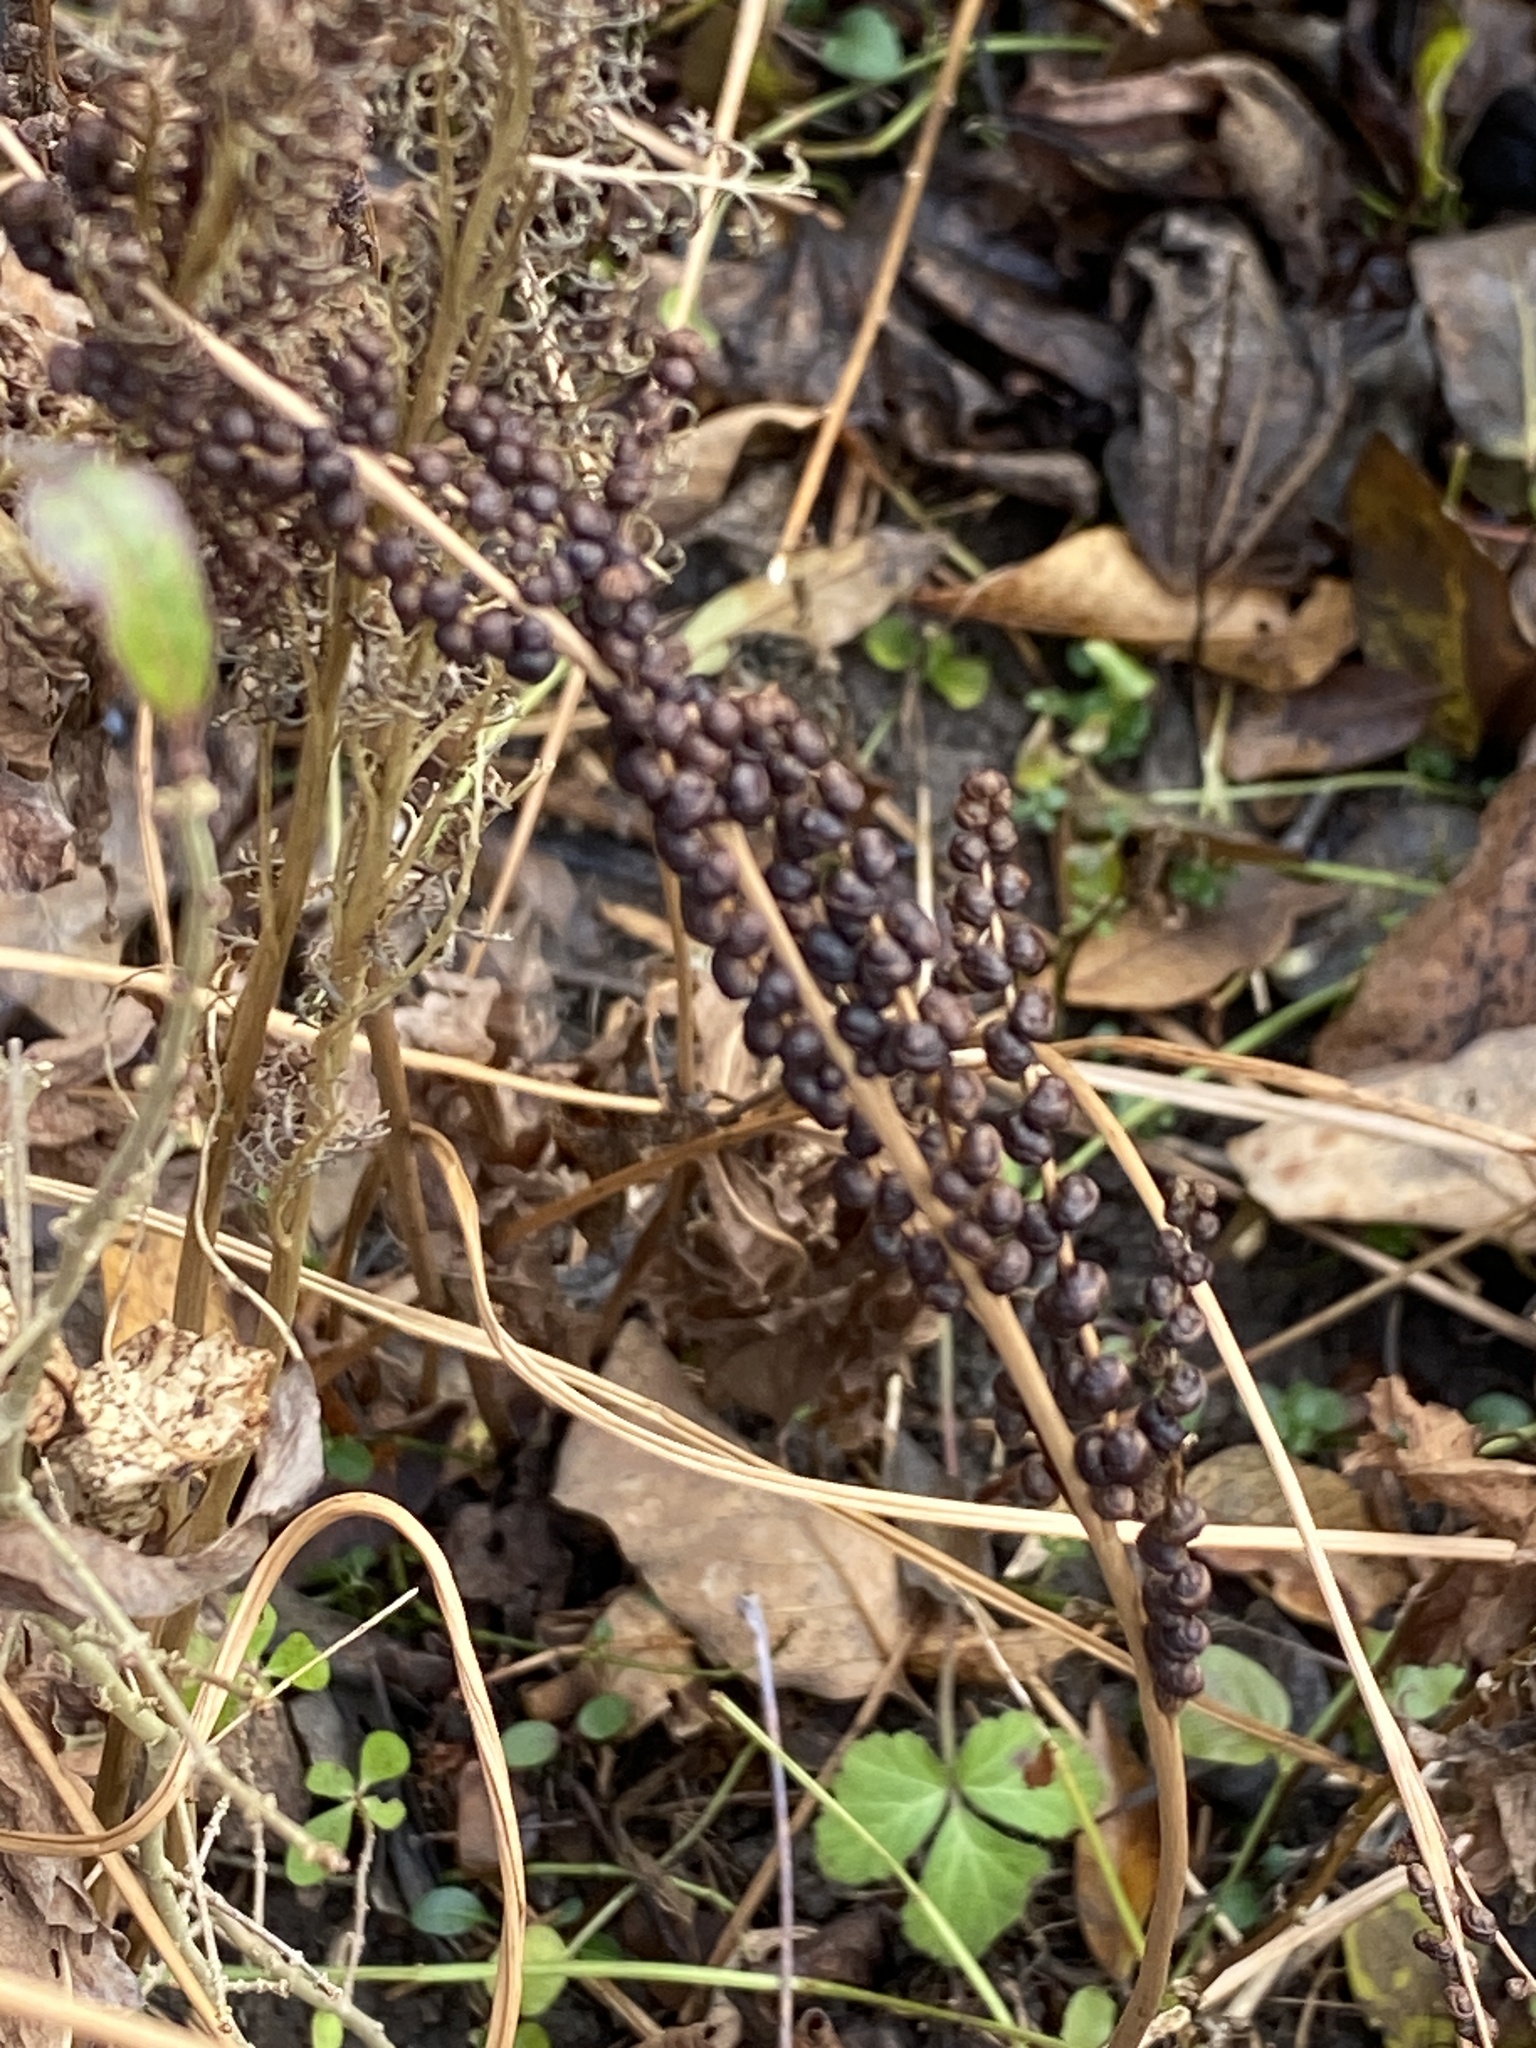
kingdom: Plantae
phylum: Tracheophyta
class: Polypodiopsida
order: Polypodiales
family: Onocleaceae
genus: Onoclea
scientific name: Onoclea sensibilis
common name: Sensitive fern
